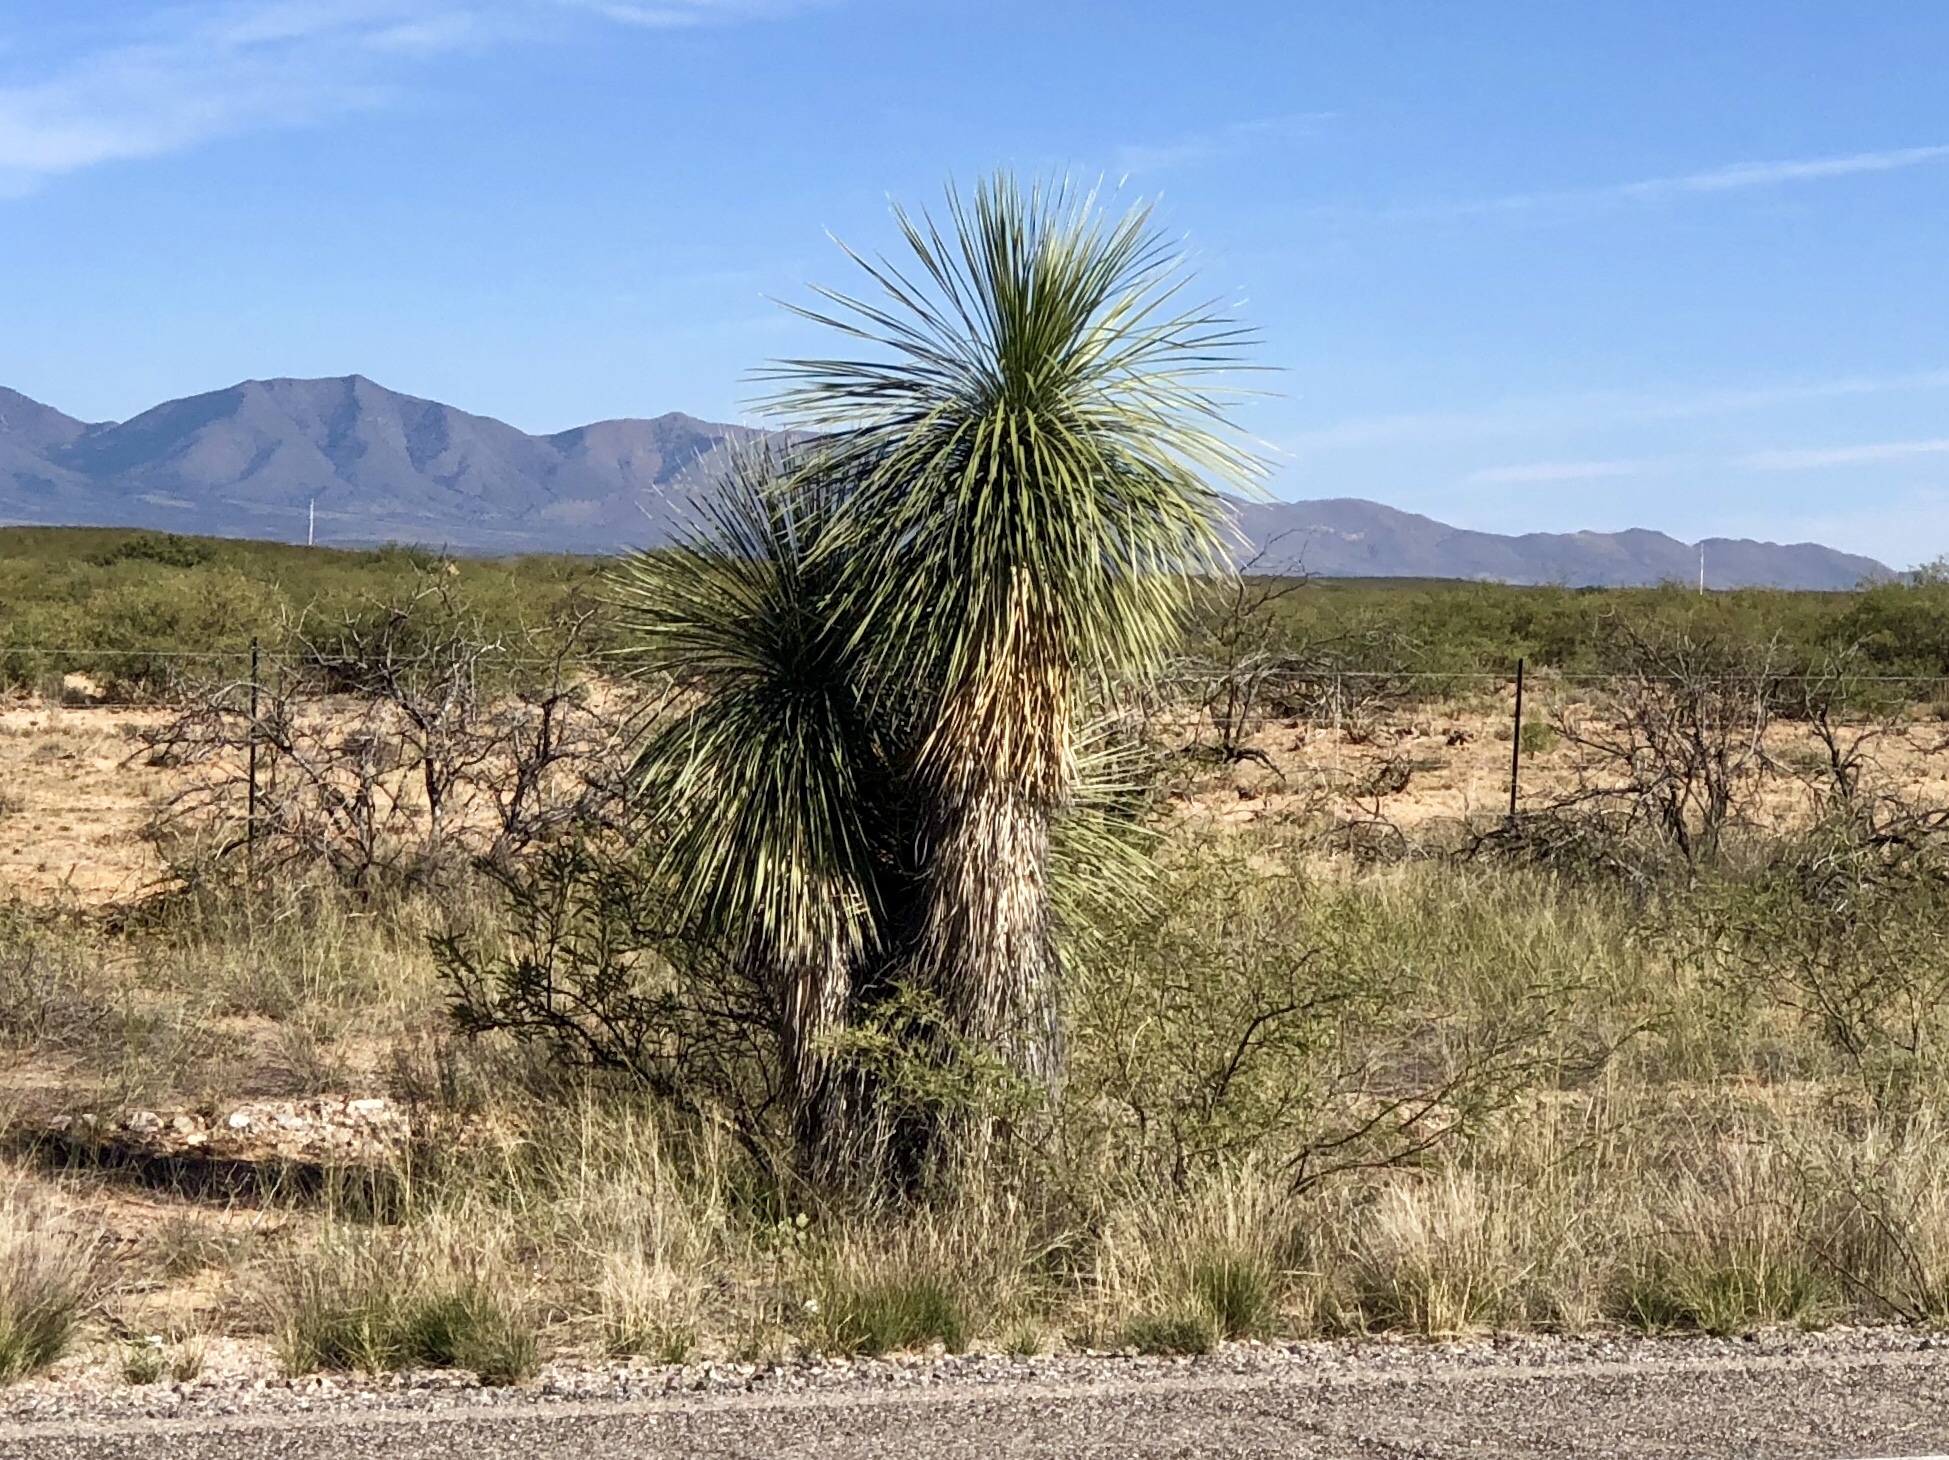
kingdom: Plantae
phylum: Tracheophyta
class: Liliopsida
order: Asparagales
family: Asparagaceae
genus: Yucca
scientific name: Yucca elata
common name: Palmella
